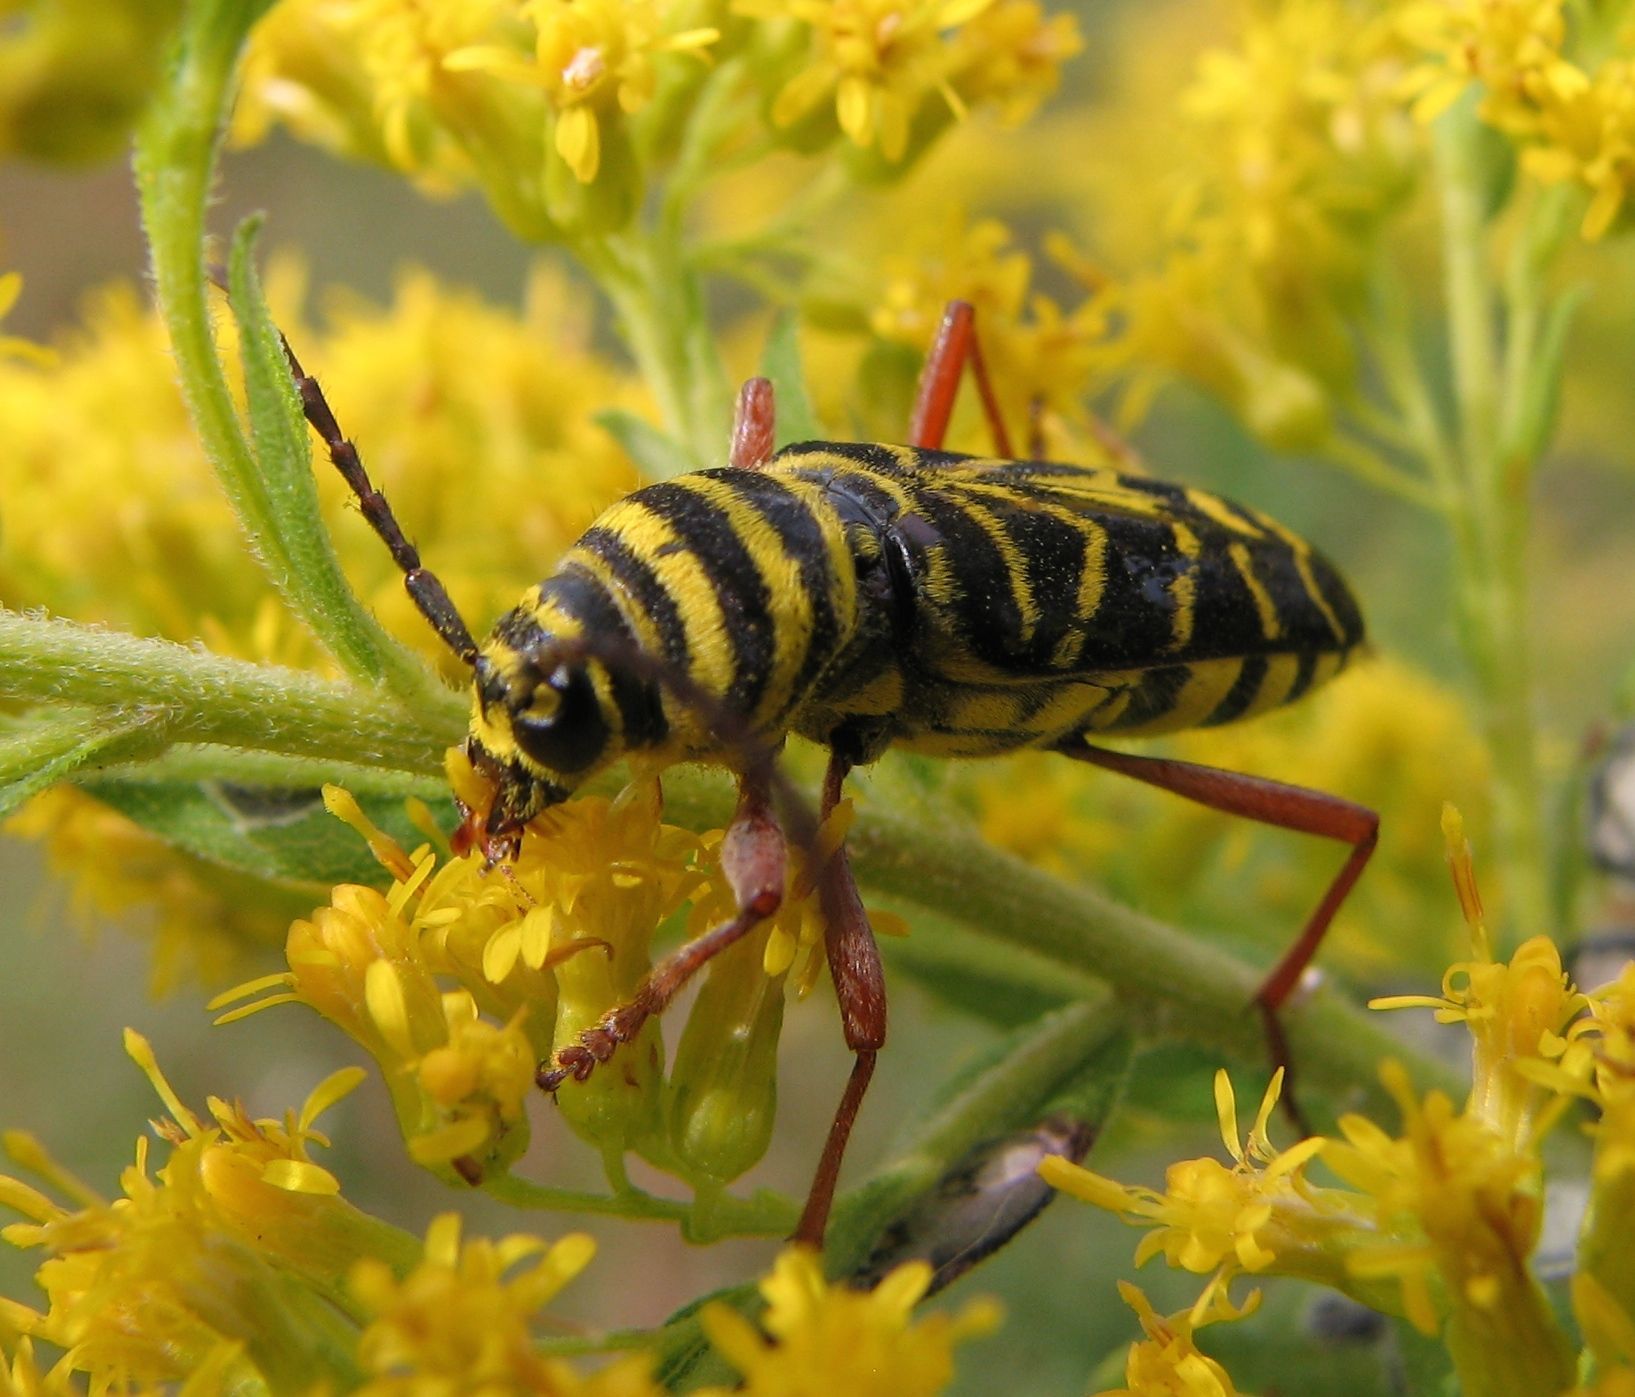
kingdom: Animalia
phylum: Arthropoda
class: Insecta
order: Coleoptera
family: Cerambycidae
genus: Megacyllene
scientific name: Megacyllene robiniae
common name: Locust borer
